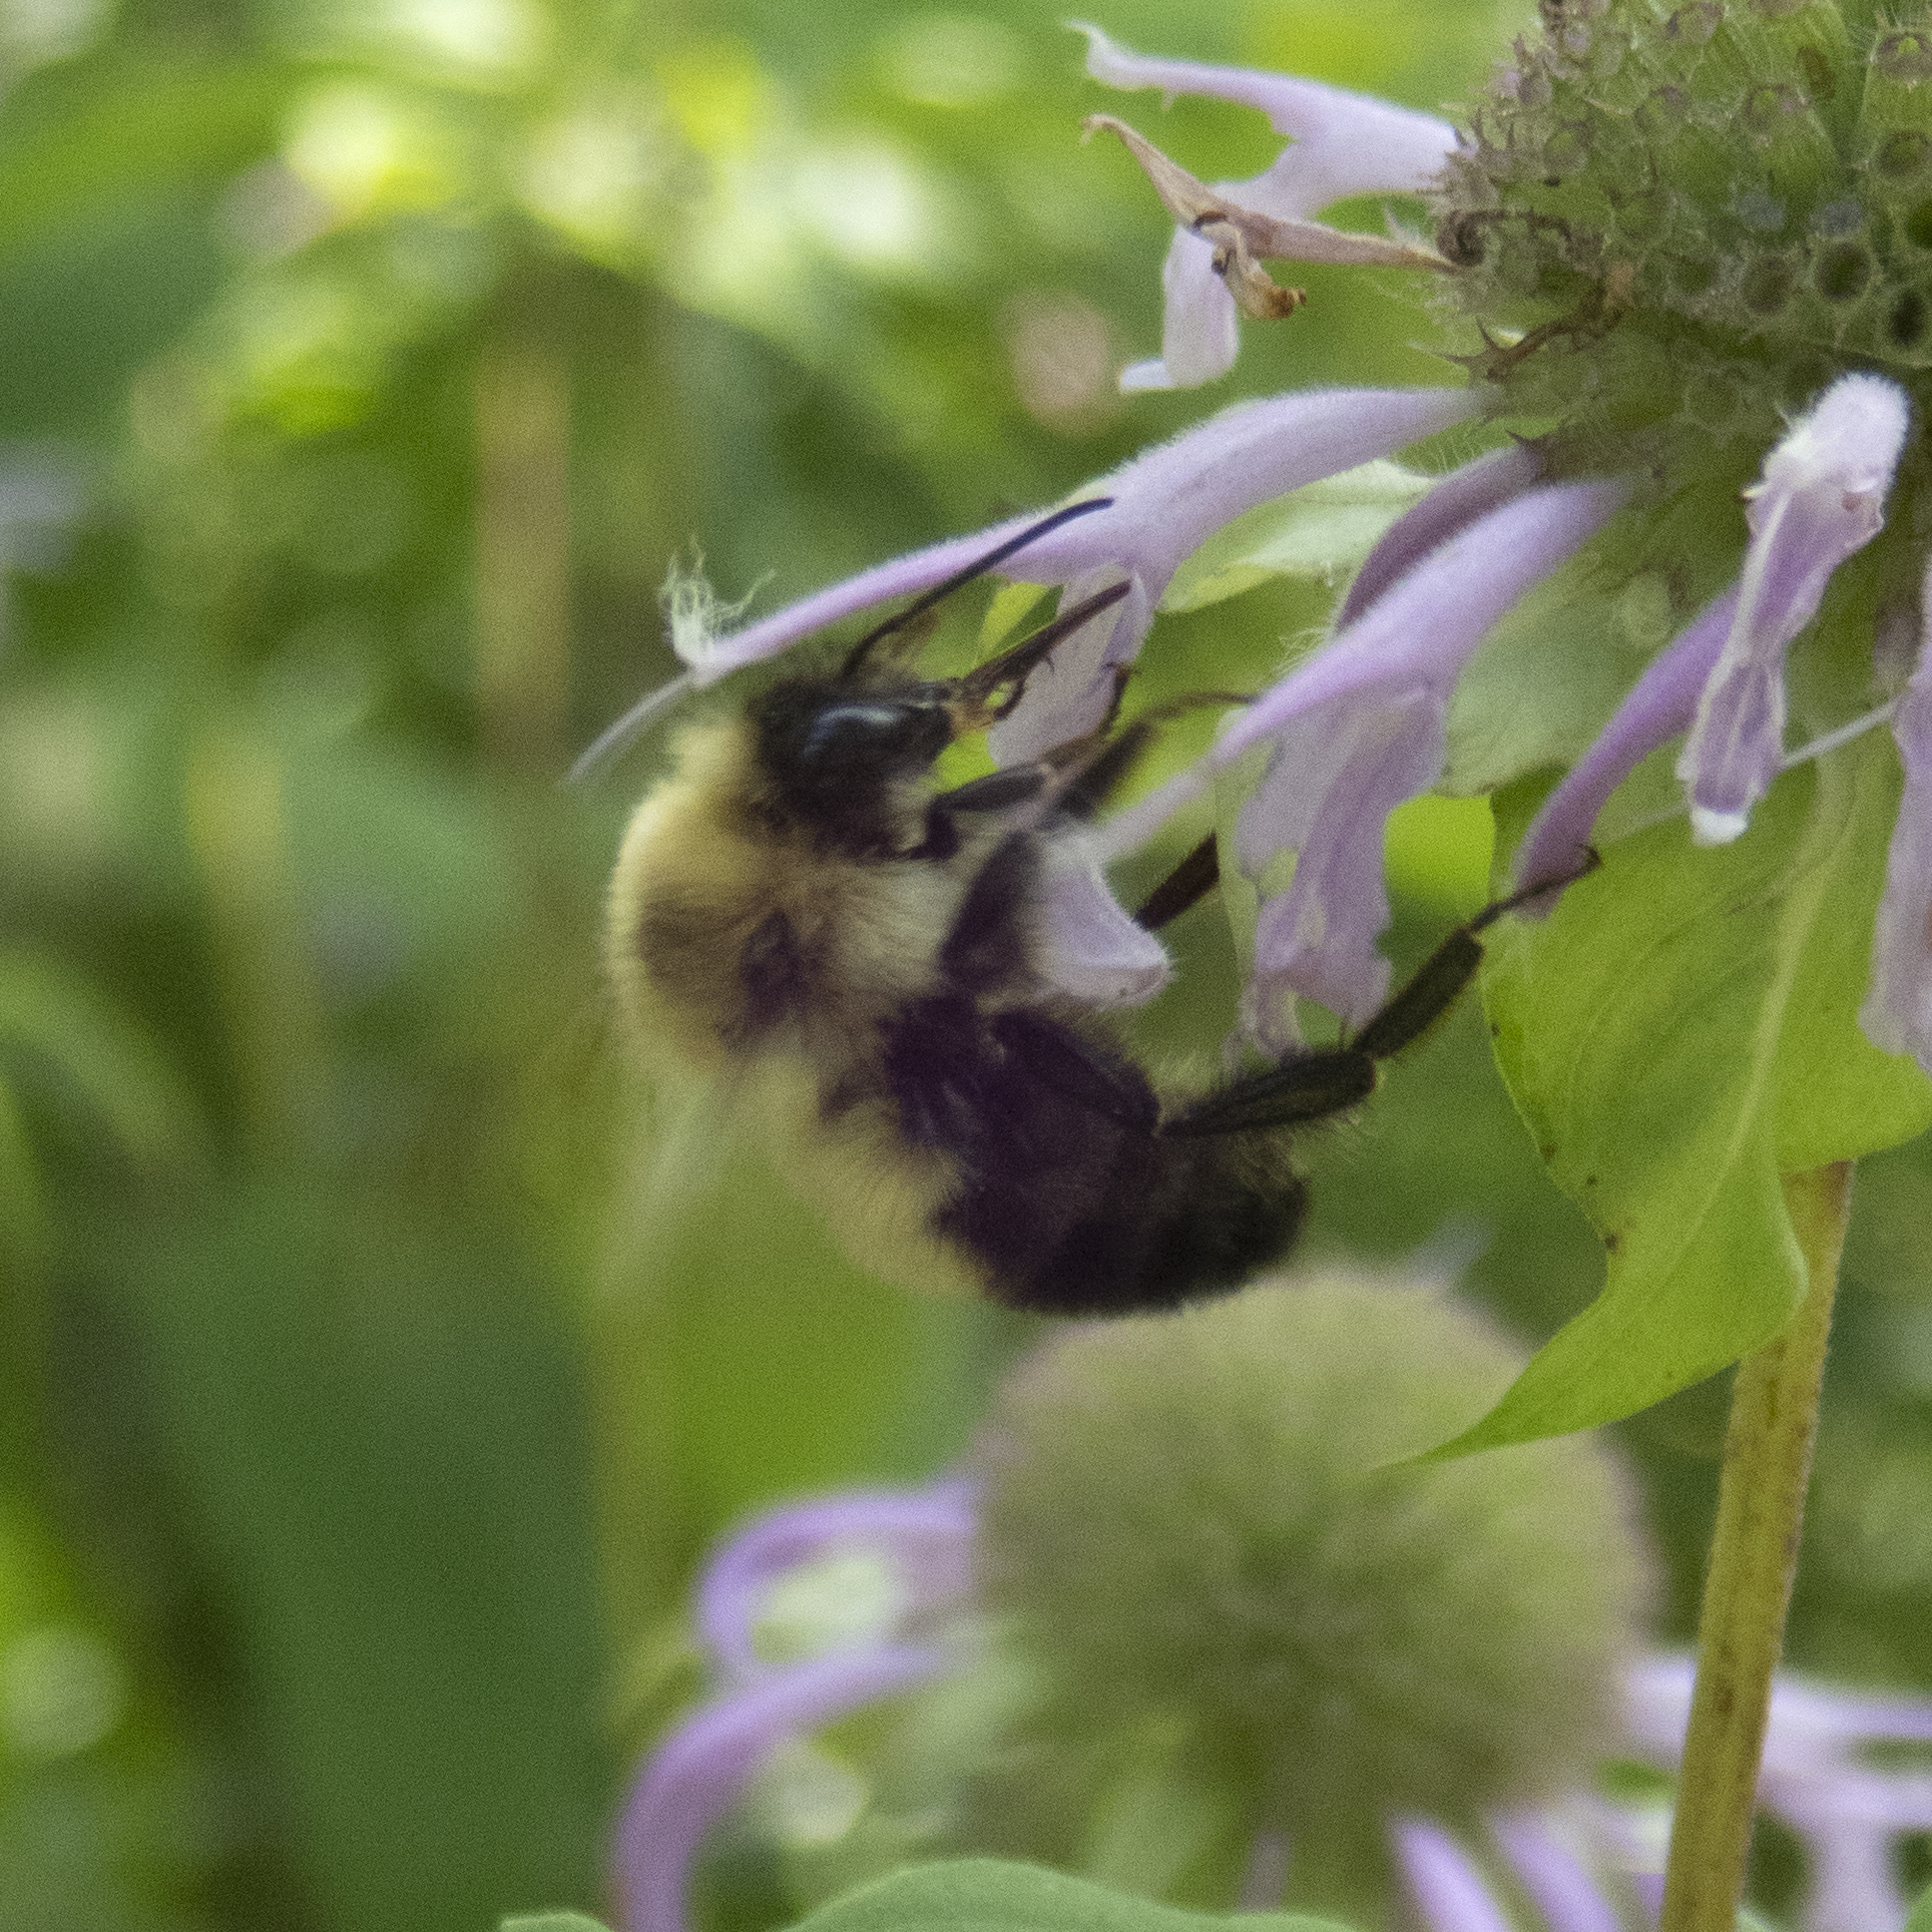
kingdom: Animalia
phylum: Arthropoda
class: Insecta
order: Hymenoptera
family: Apidae
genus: Bombus
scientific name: Bombus bimaculatus
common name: Two-spotted bumble bee
